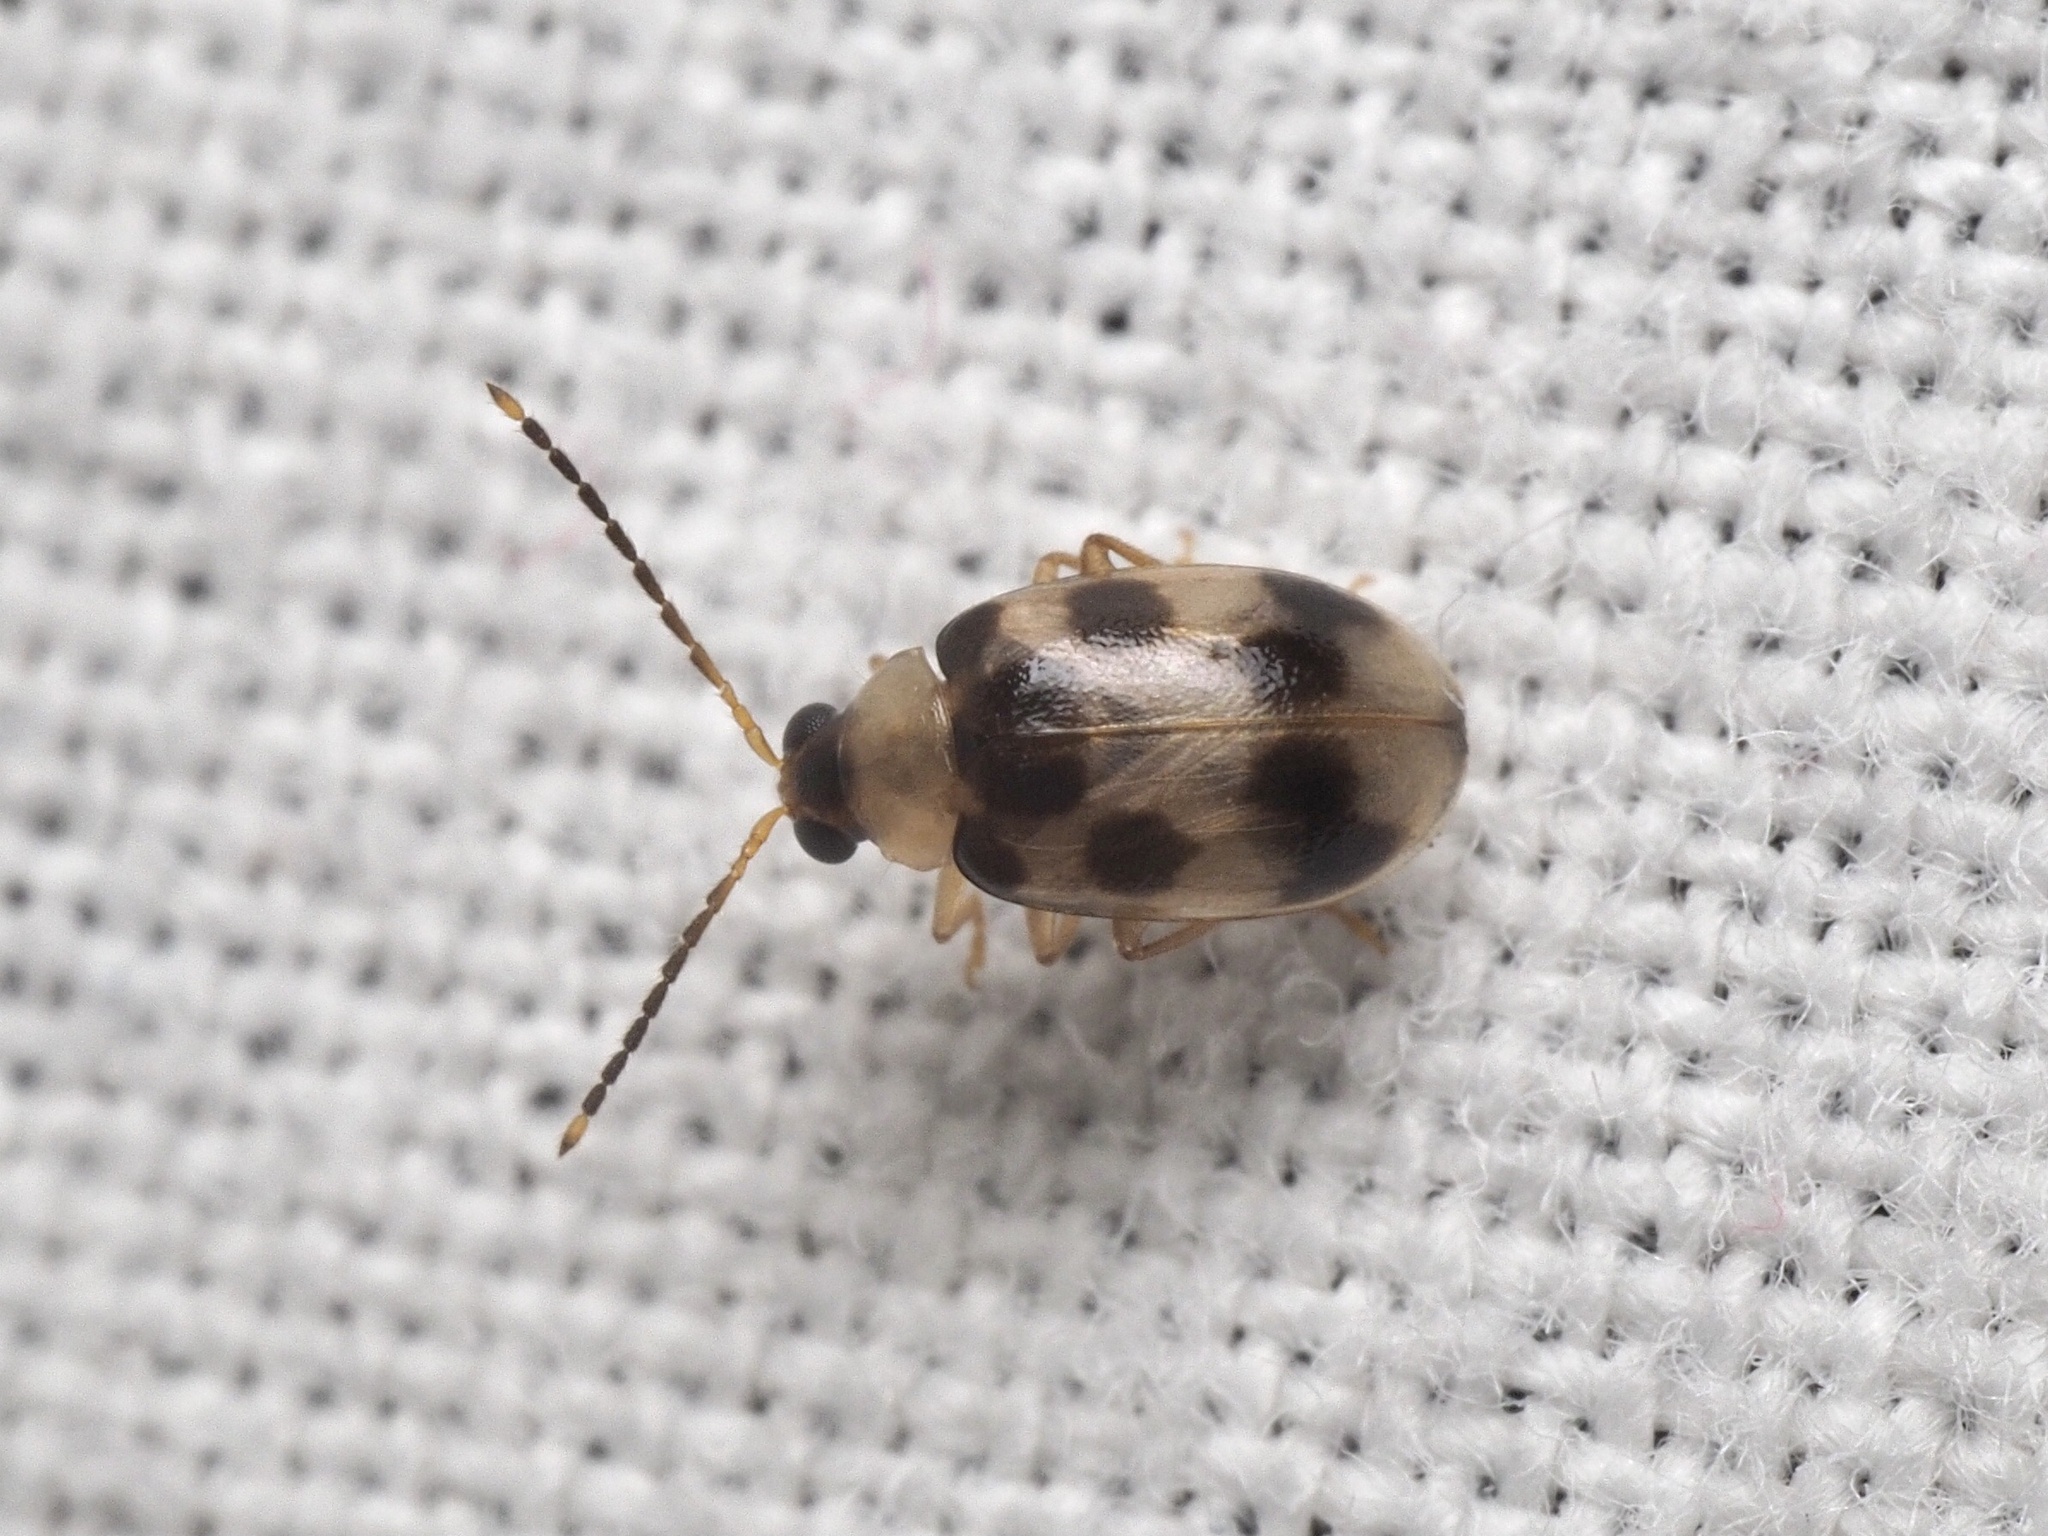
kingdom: Animalia
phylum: Arthropoda
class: Insecta
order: Coleoptera
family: Chrysomelidae
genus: Afromaculepta
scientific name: Afromaculepta decemmaculata
